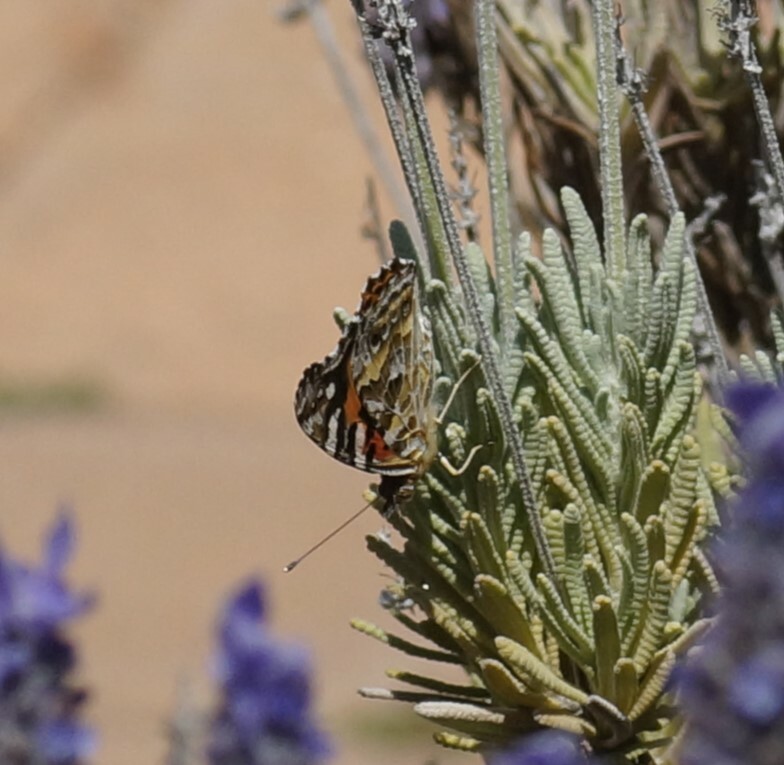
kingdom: Animalia
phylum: Arthropoda
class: Insecta
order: Lepidoptera
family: Nymphalidae
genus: Vanessa
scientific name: Vanessa kershawi
